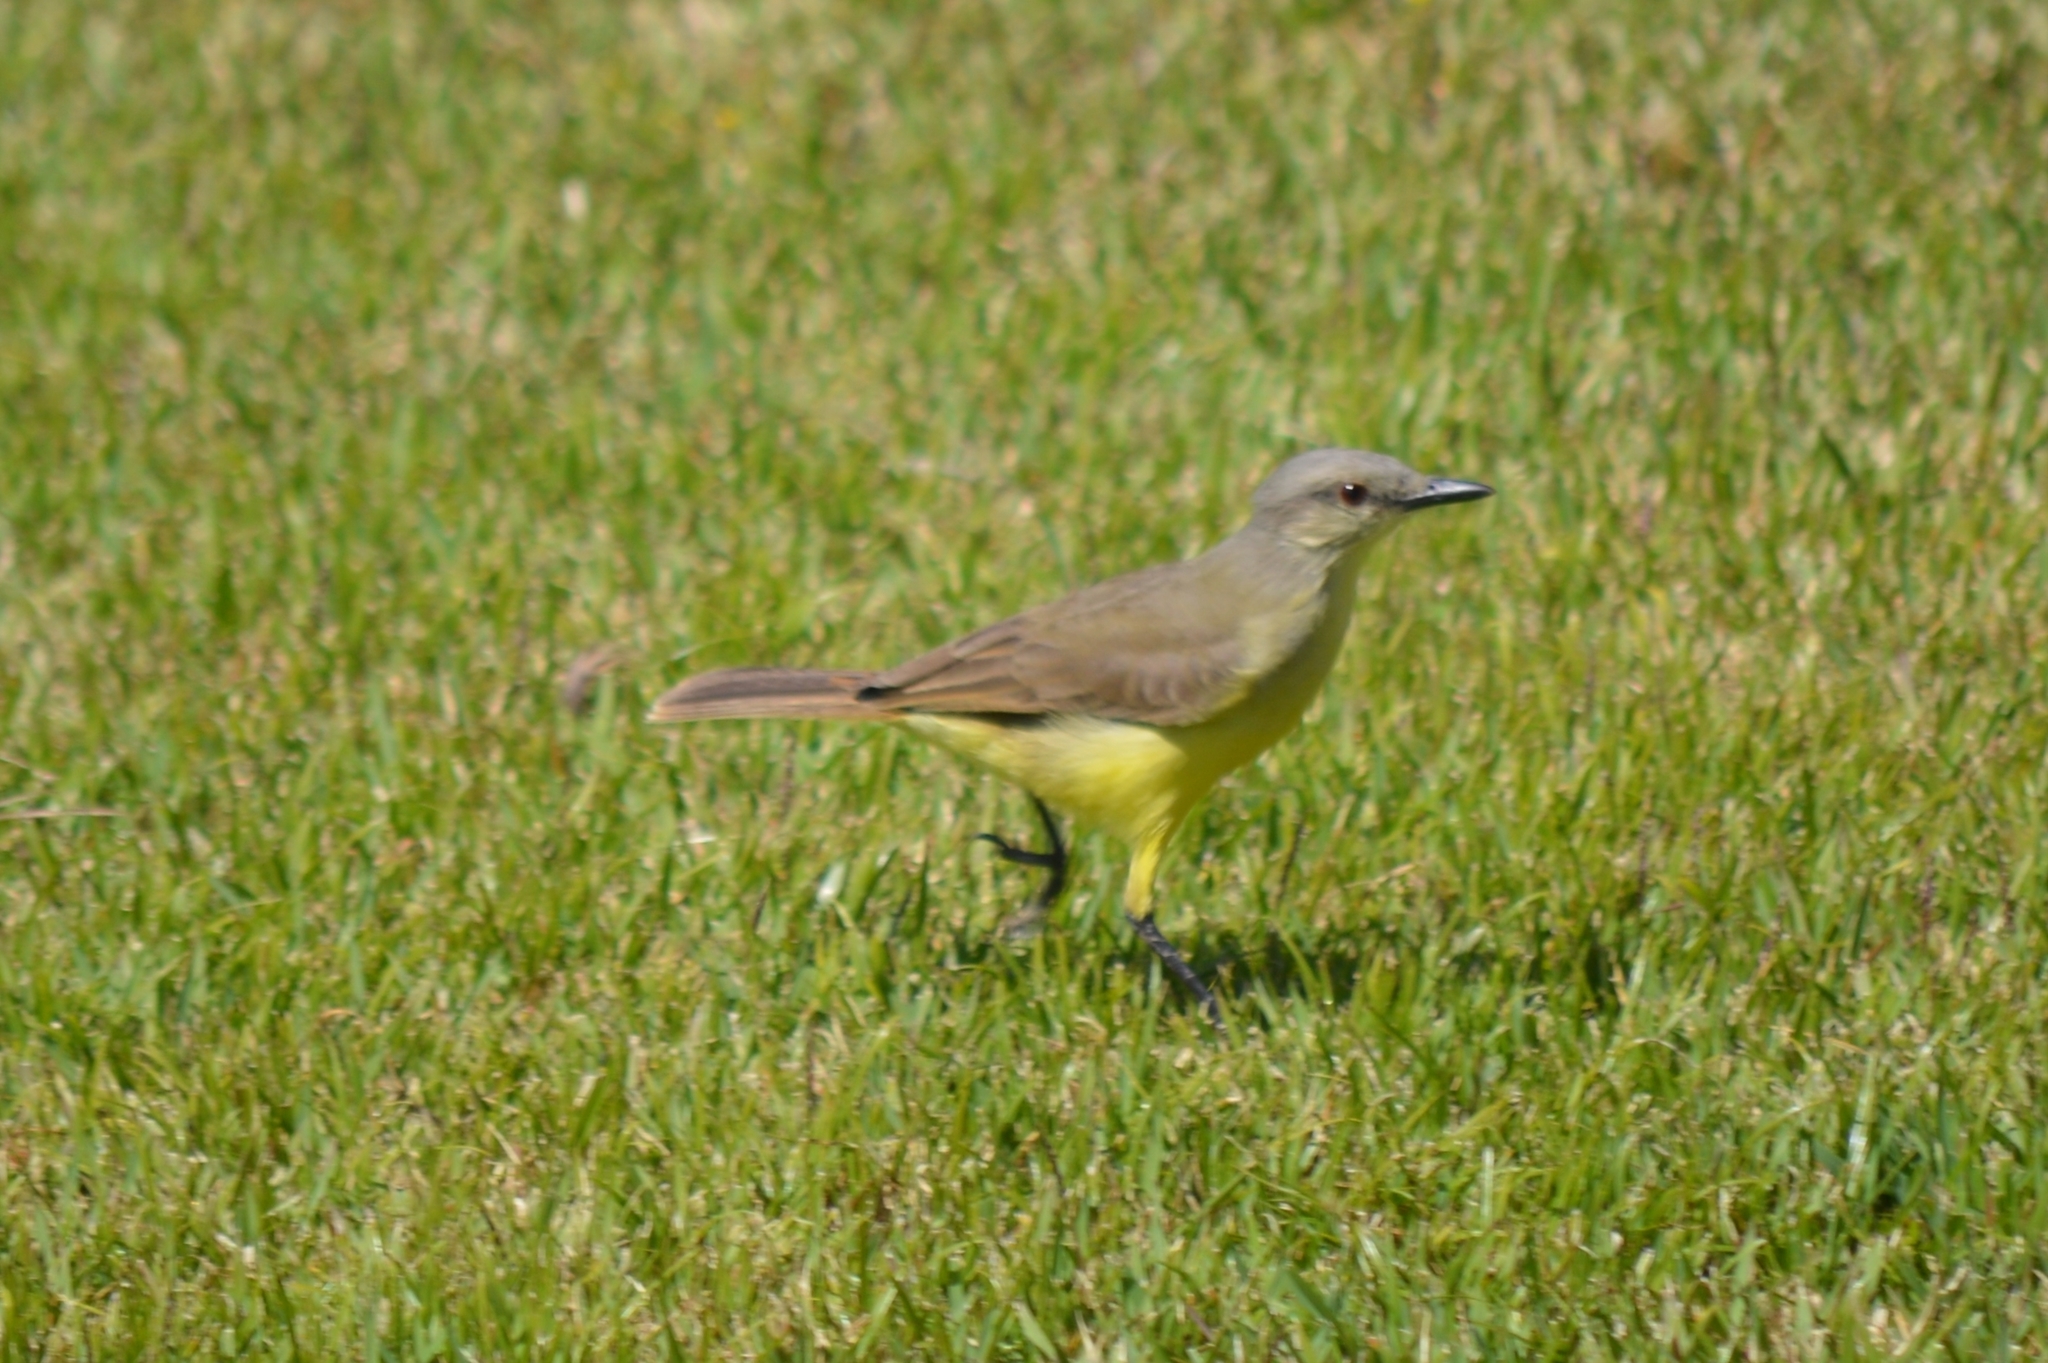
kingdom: Animalia
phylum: Chordata
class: Aves
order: Passeriformes
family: Tyrannidae
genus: Machetornis
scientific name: Machetornis rixosa
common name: Cattle tyrant
